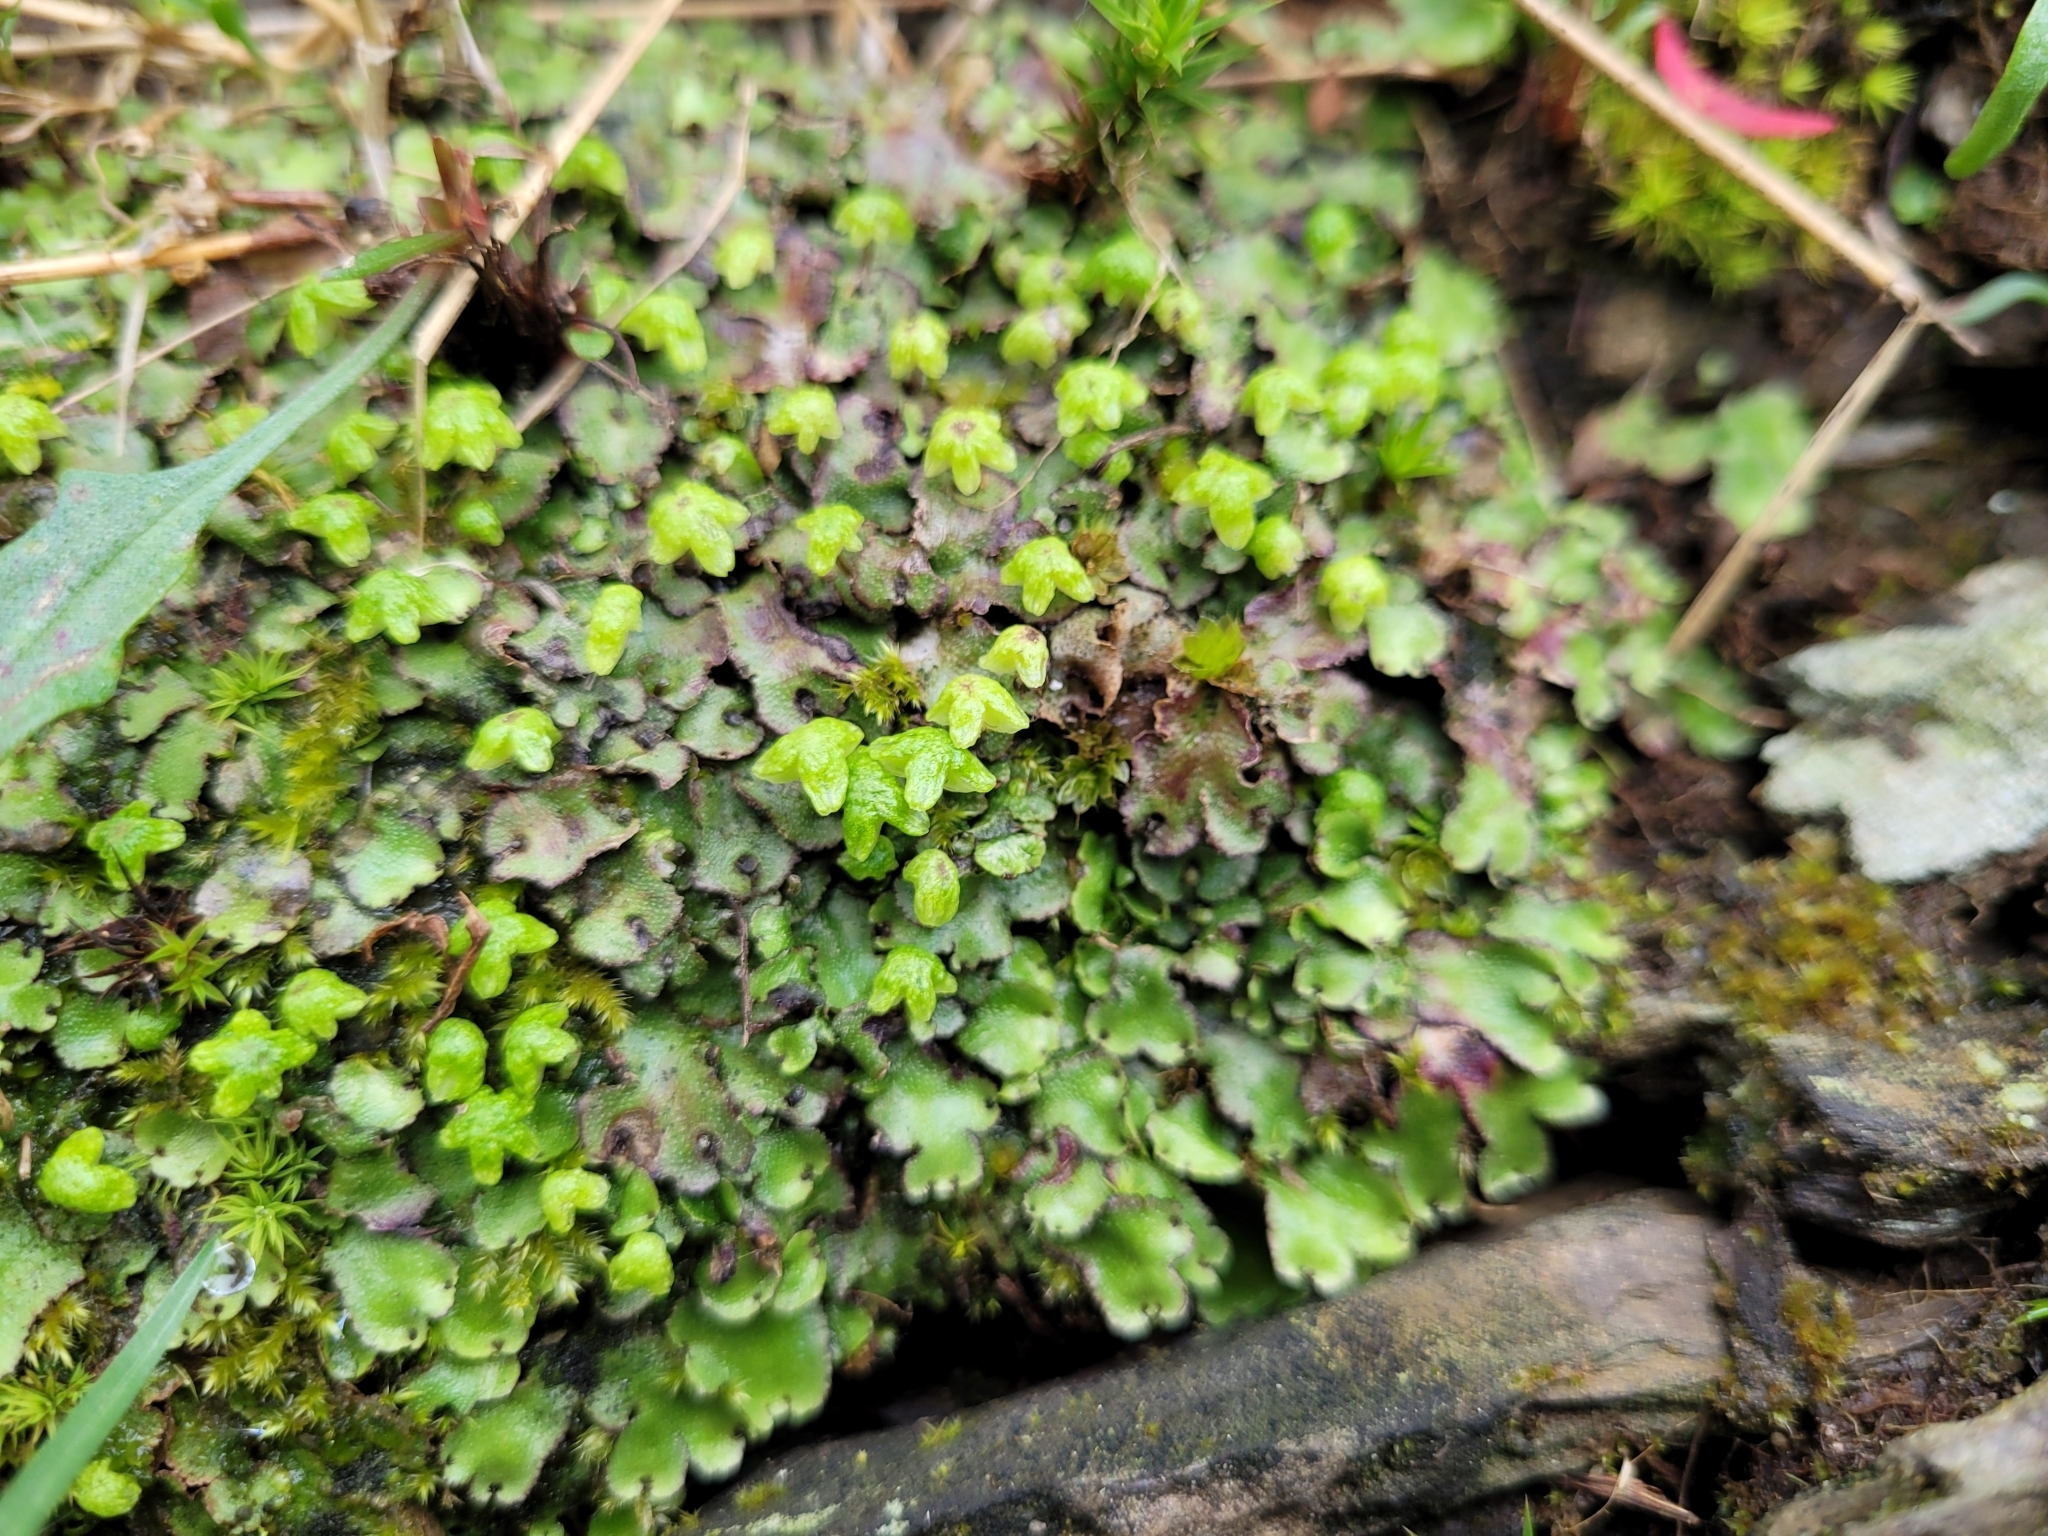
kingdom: Plantae
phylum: Marchantiophyta
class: Marchantiopsida
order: Marchantiales
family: Aytoniaceae
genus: Reboulia
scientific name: Reboulia hemisphaerica
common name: Purple-margined liverwort
